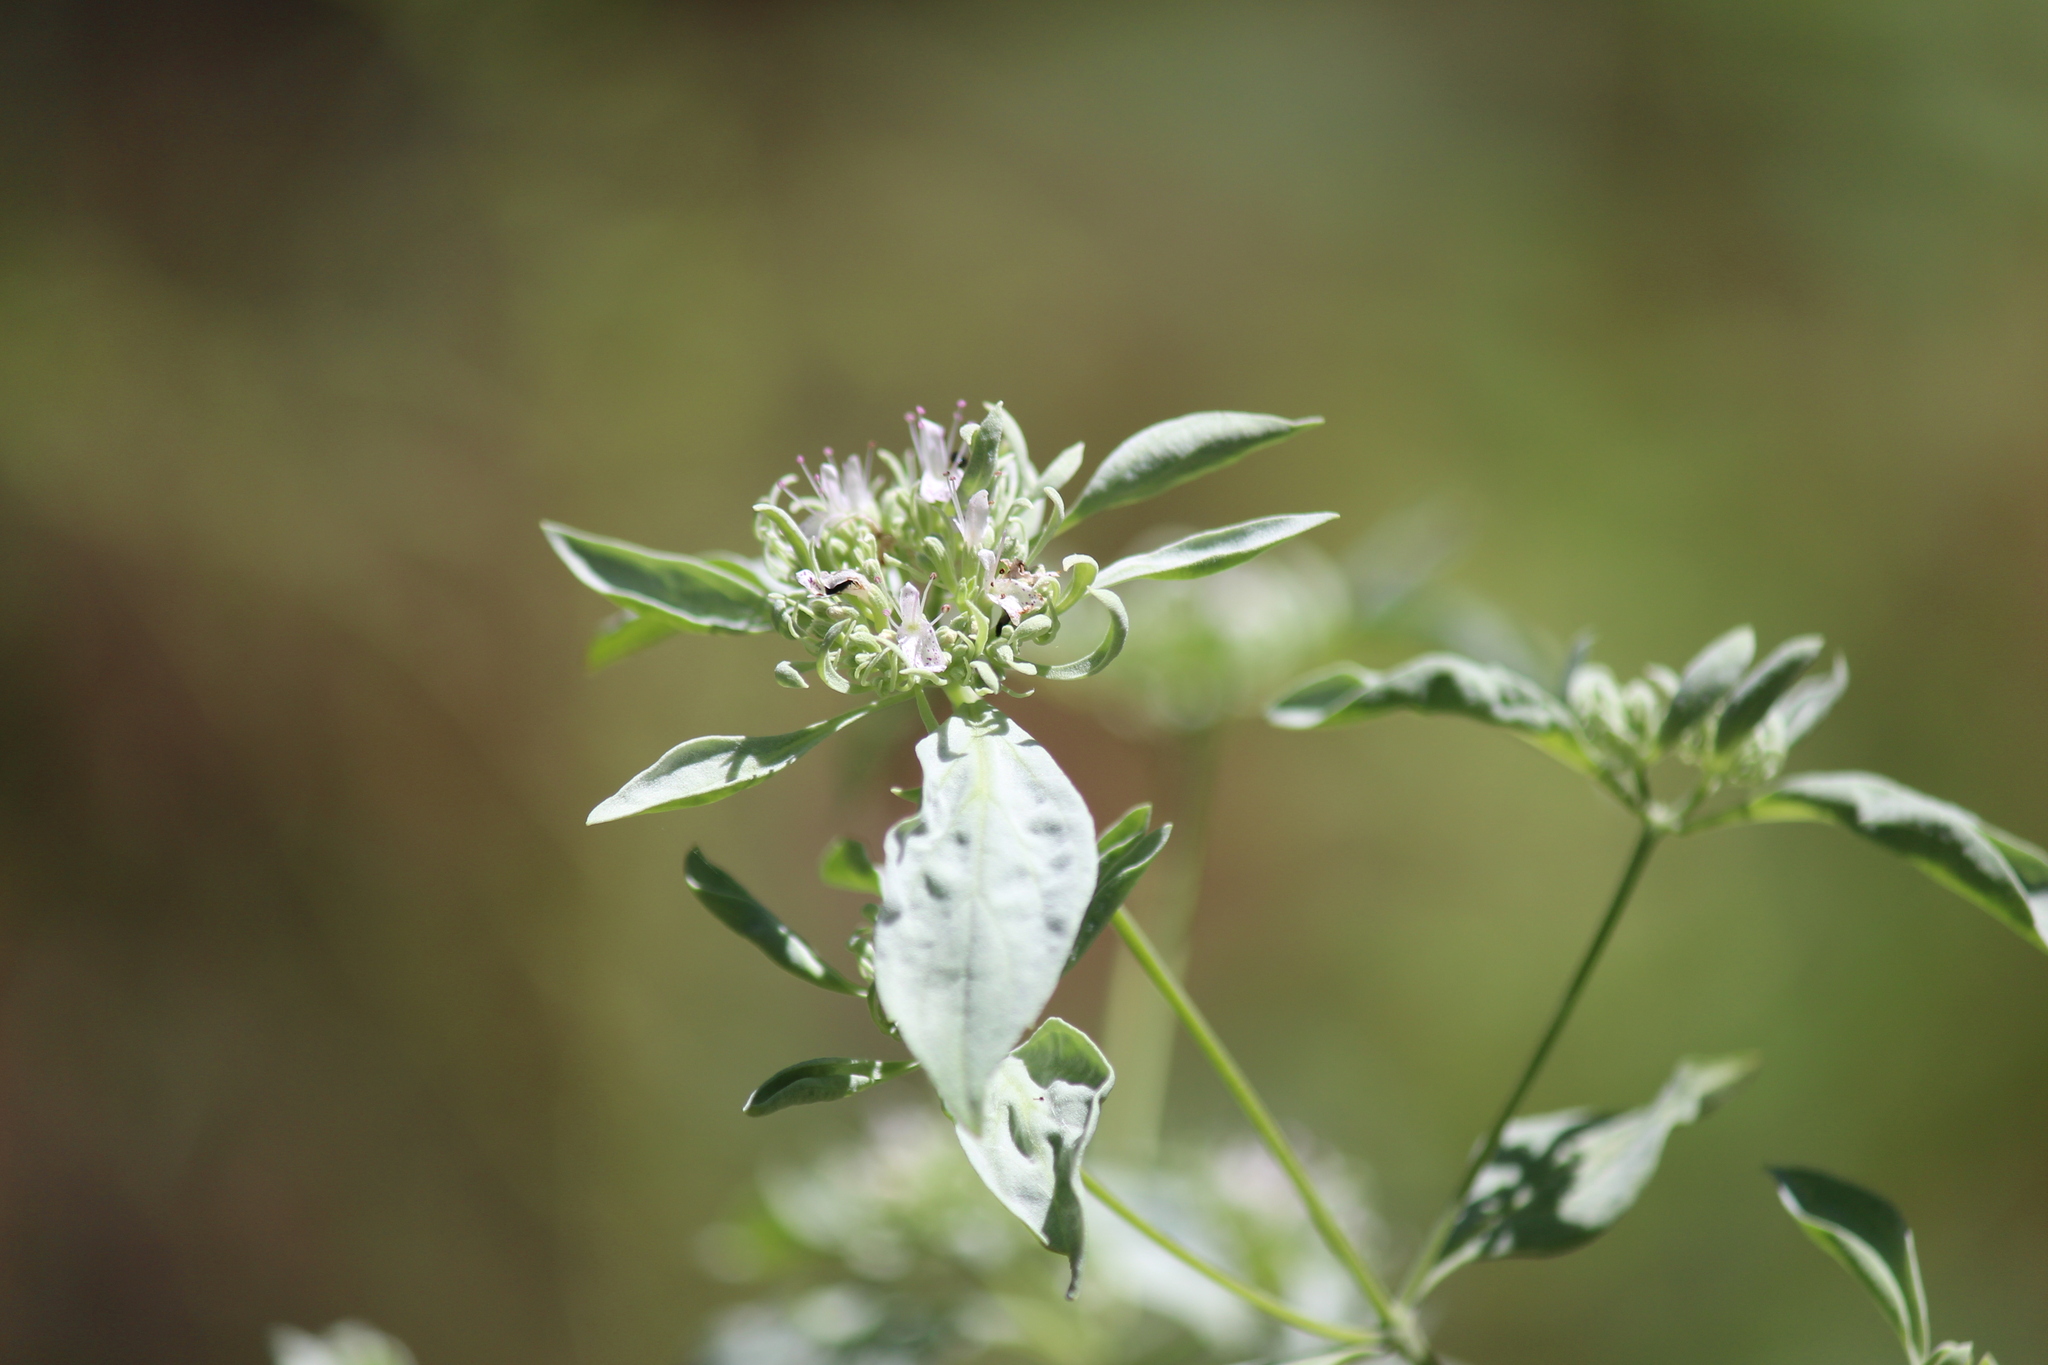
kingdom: Plantae
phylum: Tracheophyta
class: Magnoliopsida
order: Lamiales
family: Lamiaceae
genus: Pycnanthemum
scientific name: Pycnanthemum albescens
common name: White-leaf mountain-mint
